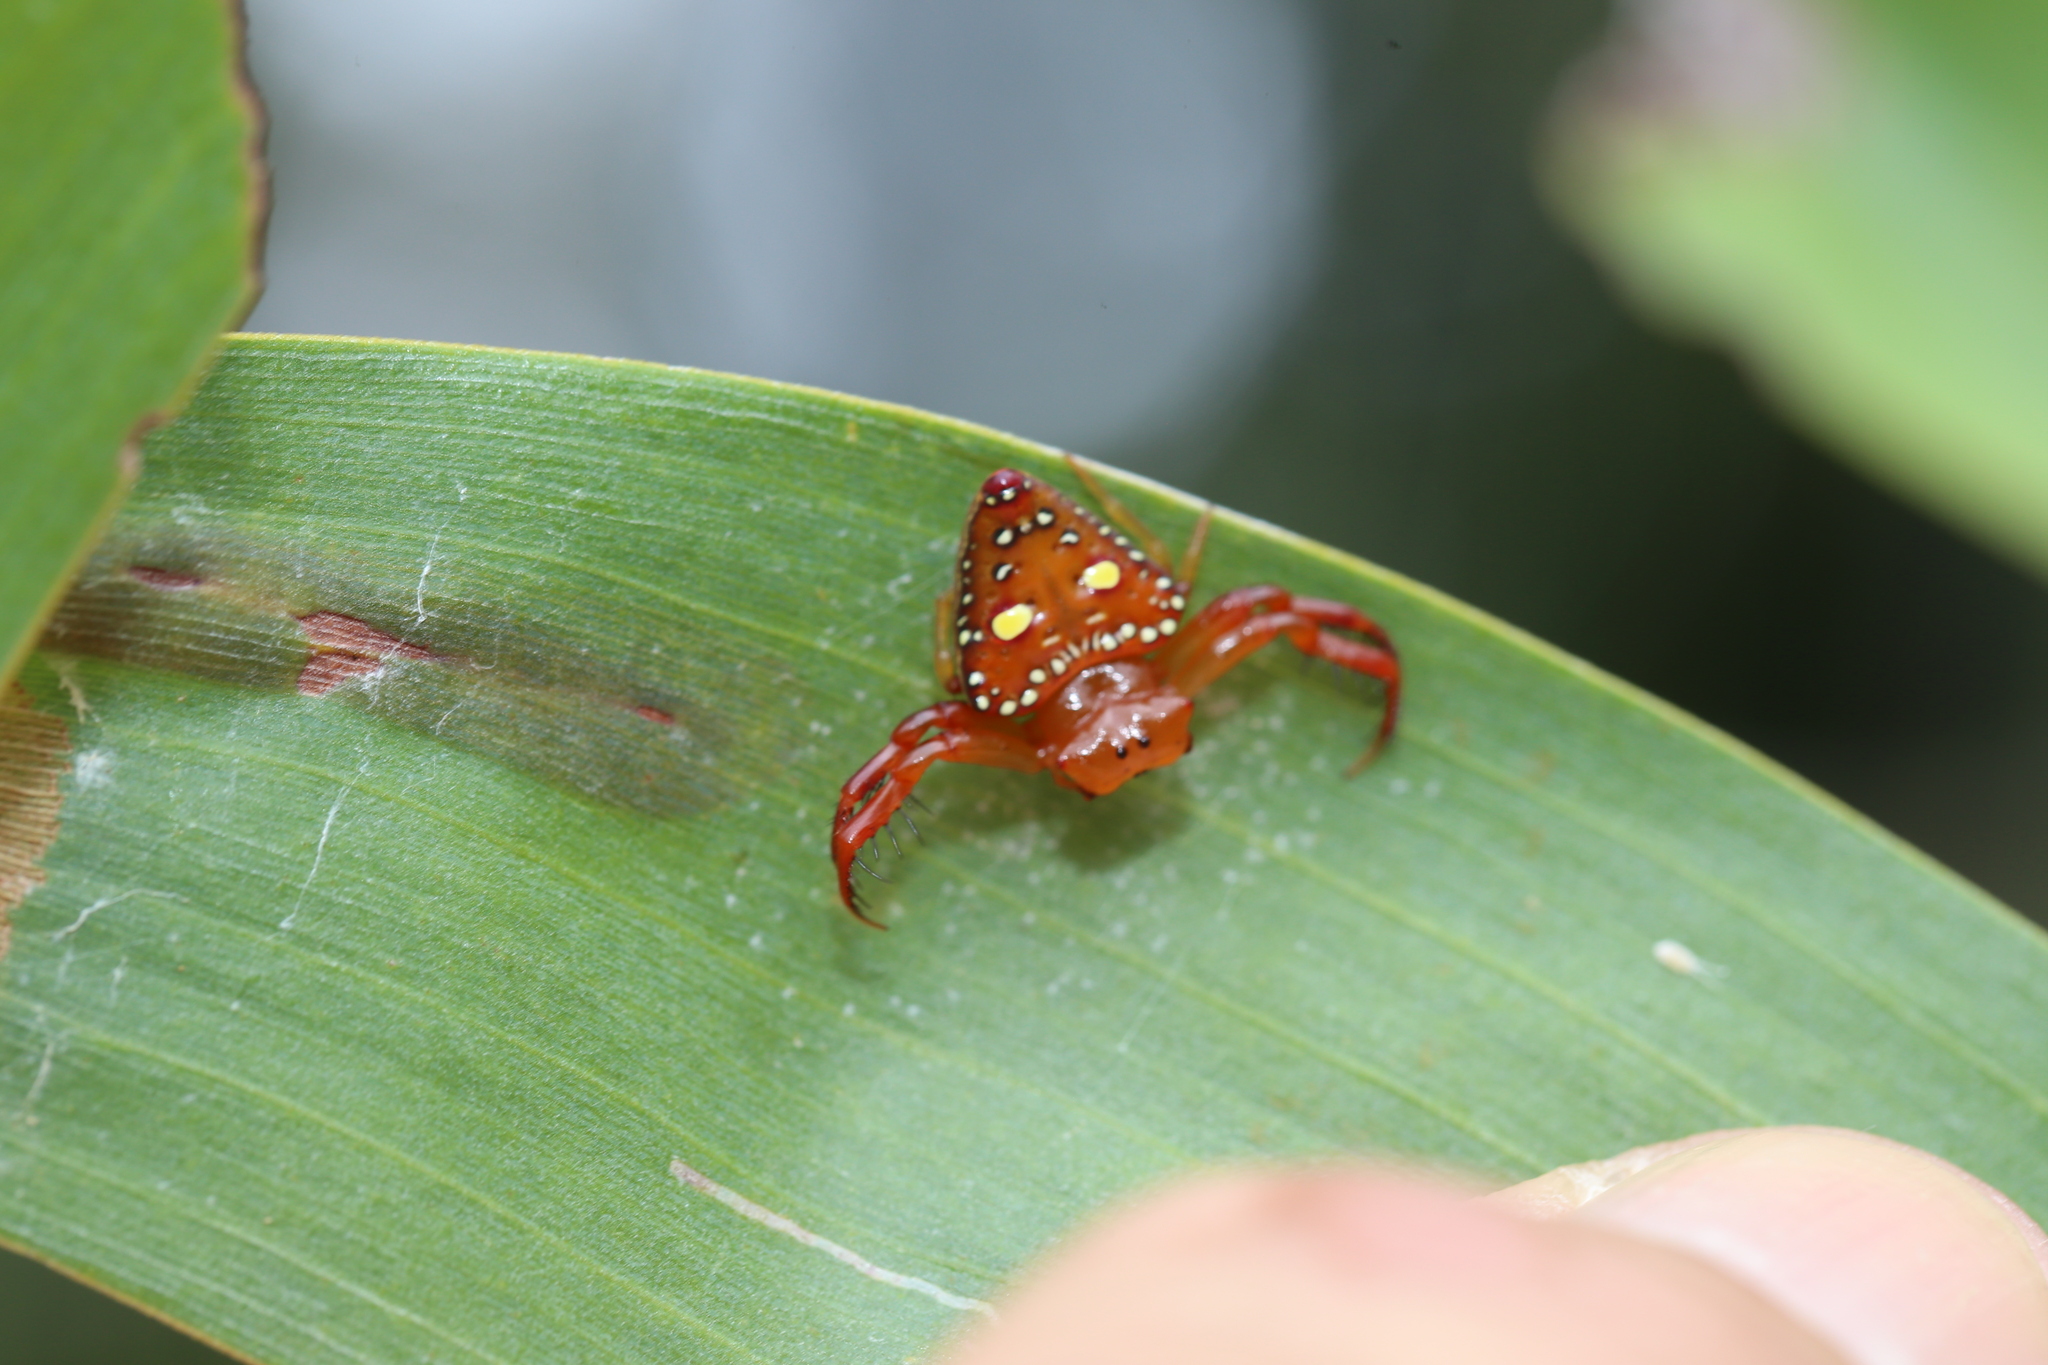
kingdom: Animalia
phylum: Arthropoda
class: Arachnida
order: Araneae
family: Arkyidae
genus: Arkys
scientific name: Arkys lancearius
